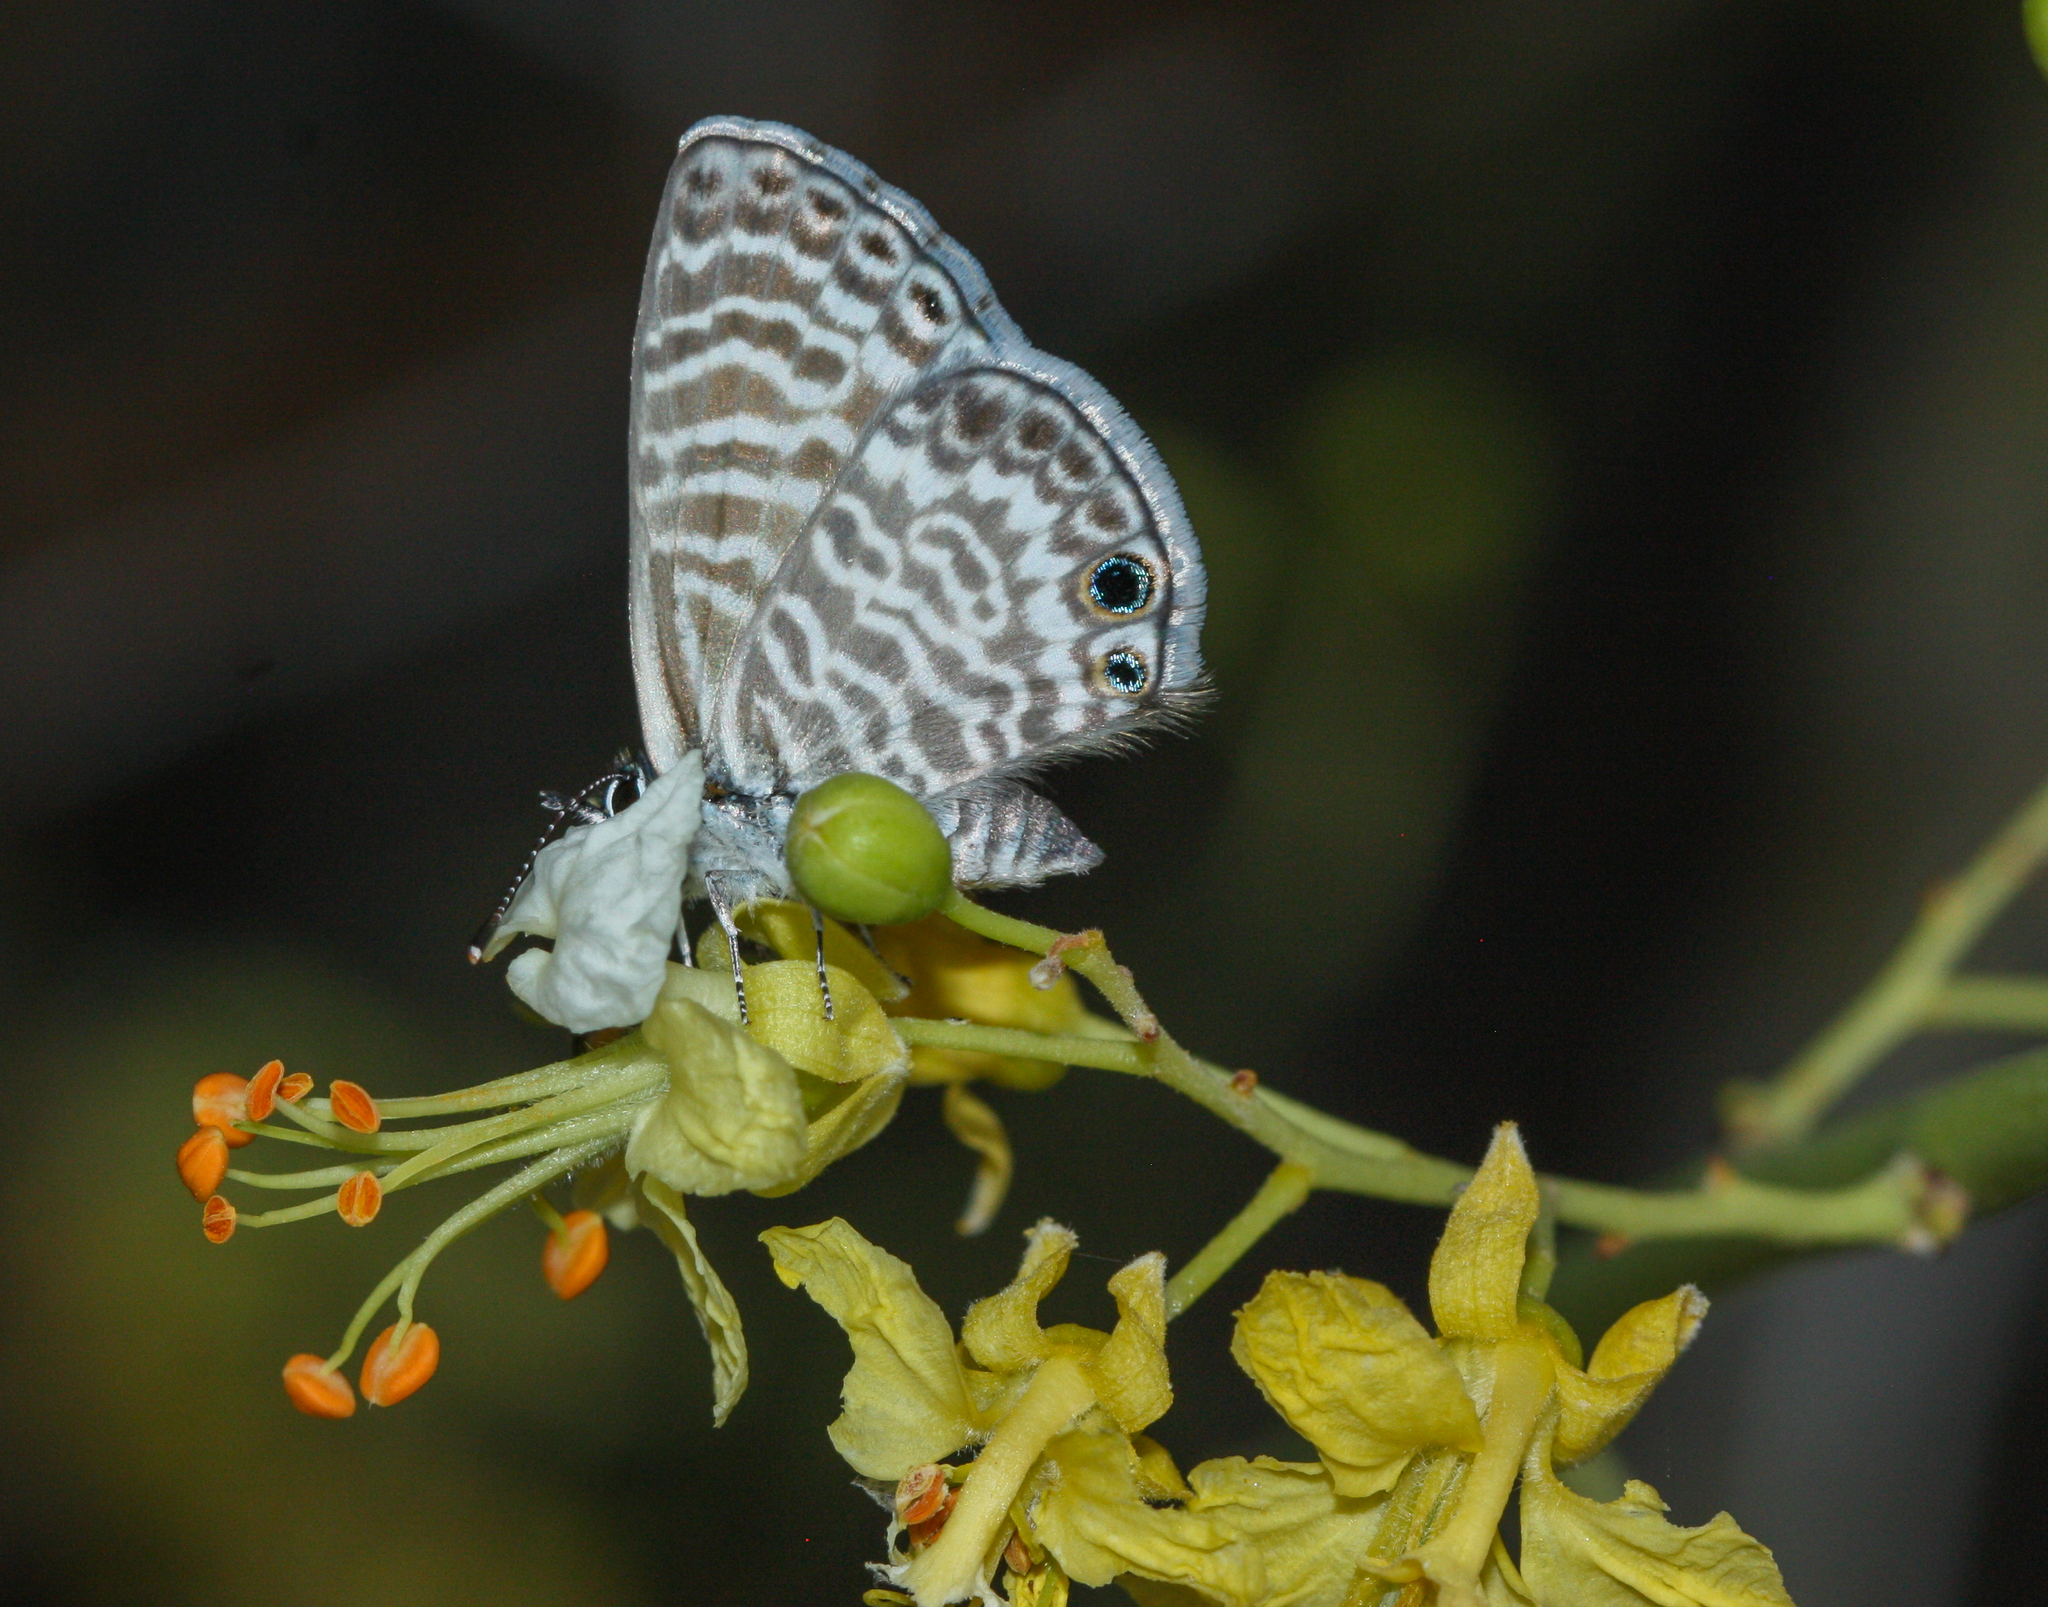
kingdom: Animalia
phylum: Arthropoda
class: Insecta
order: Lepidoptera
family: Lycaenidae
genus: Leptotes
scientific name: Leptotes marina
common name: Marine blue
